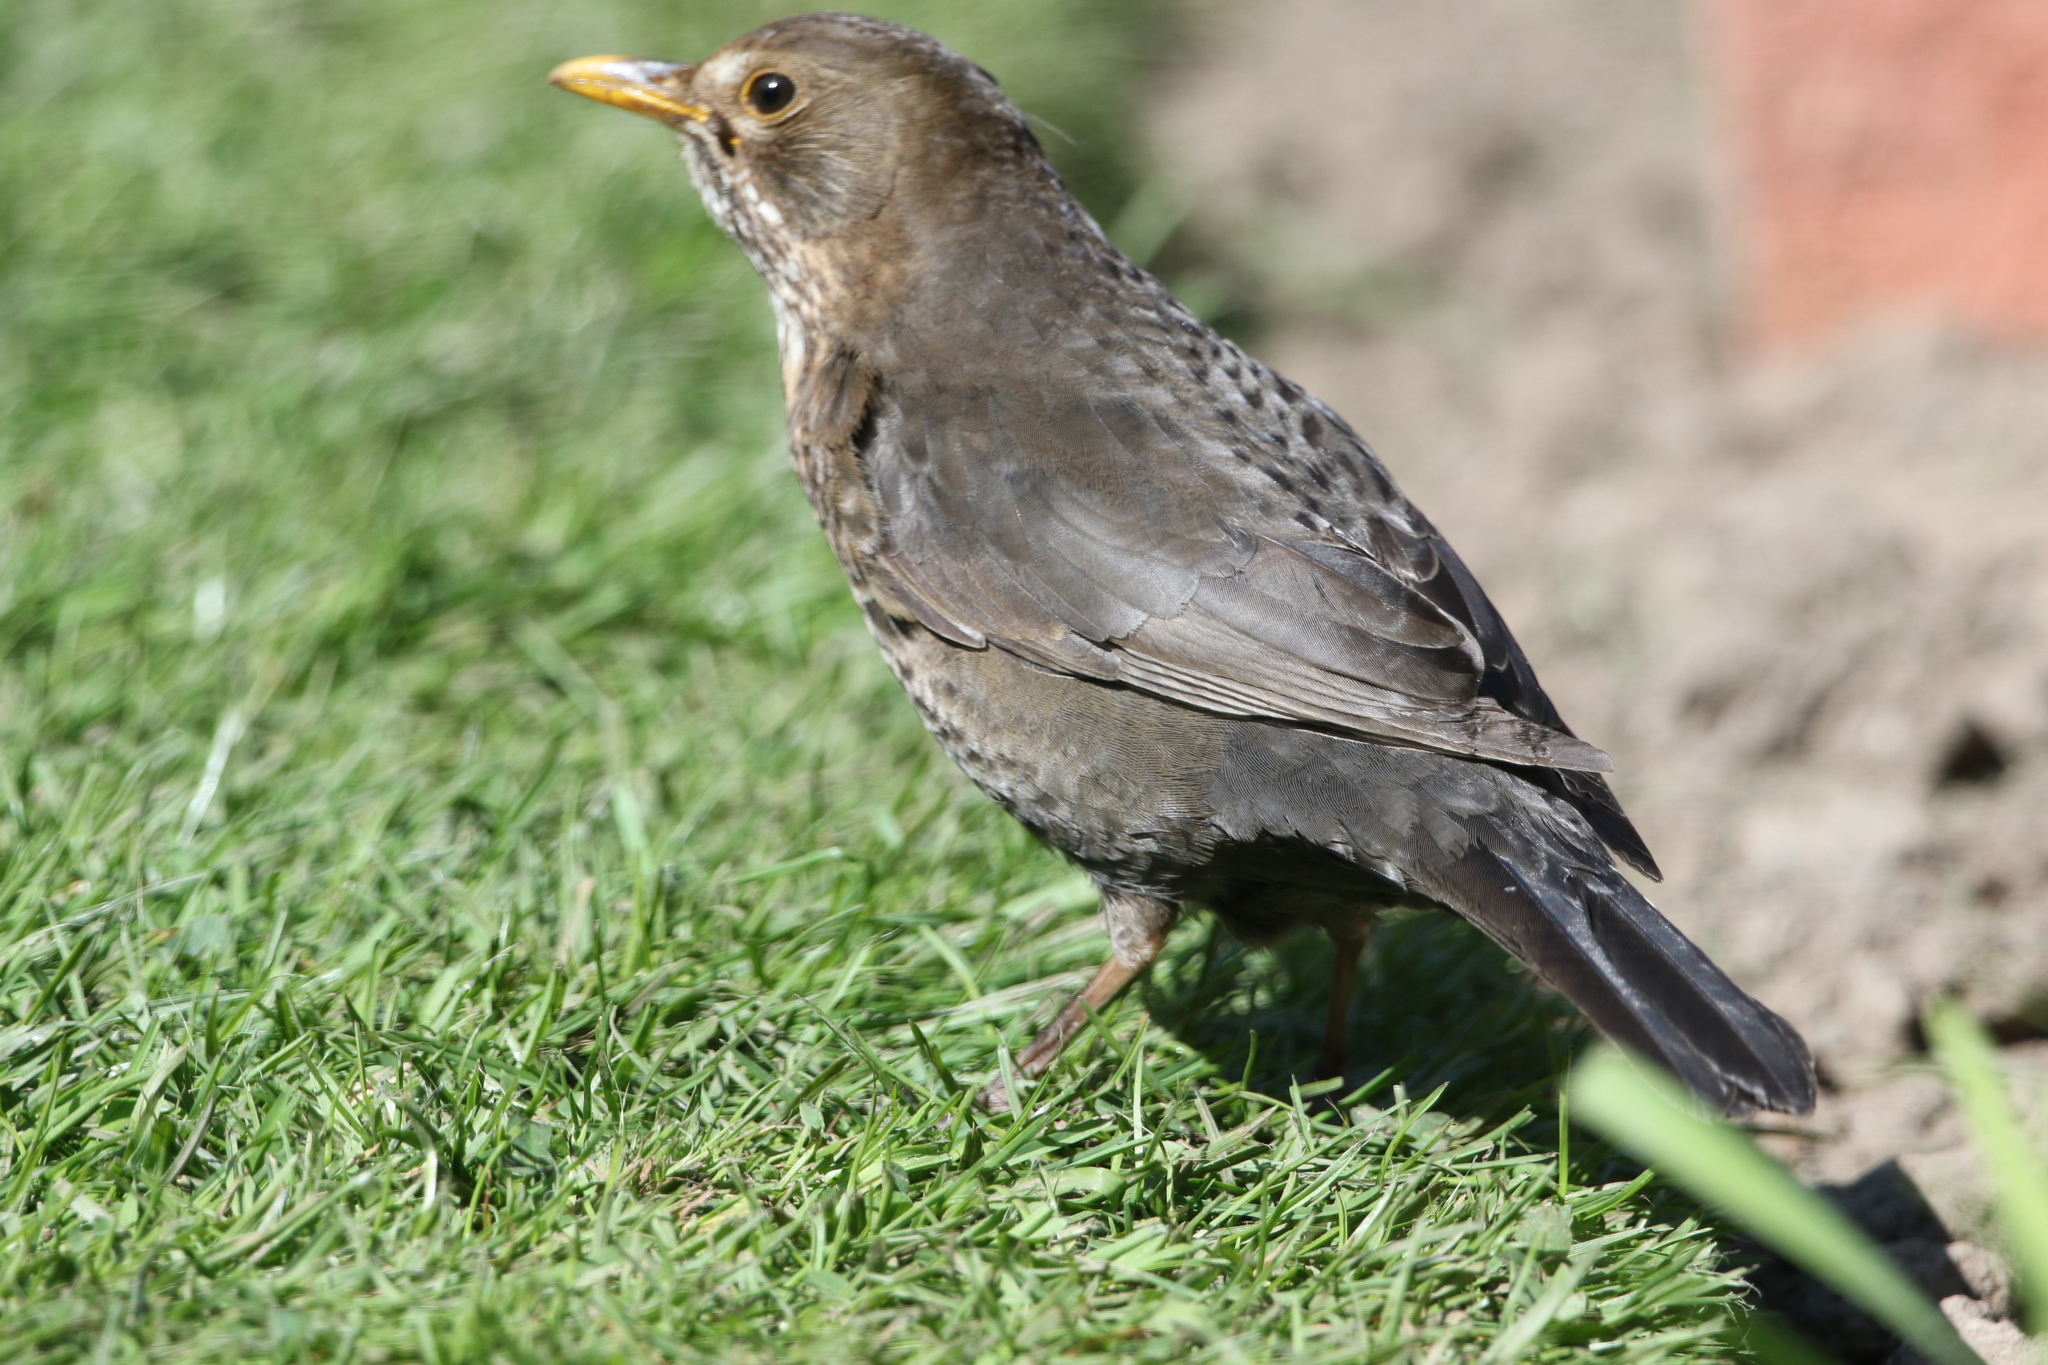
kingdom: Animalia
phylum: Chordata
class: Aves
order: Passeriformes
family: Turdidae
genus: Turdus
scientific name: Turdus merula
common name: Common blackbird
